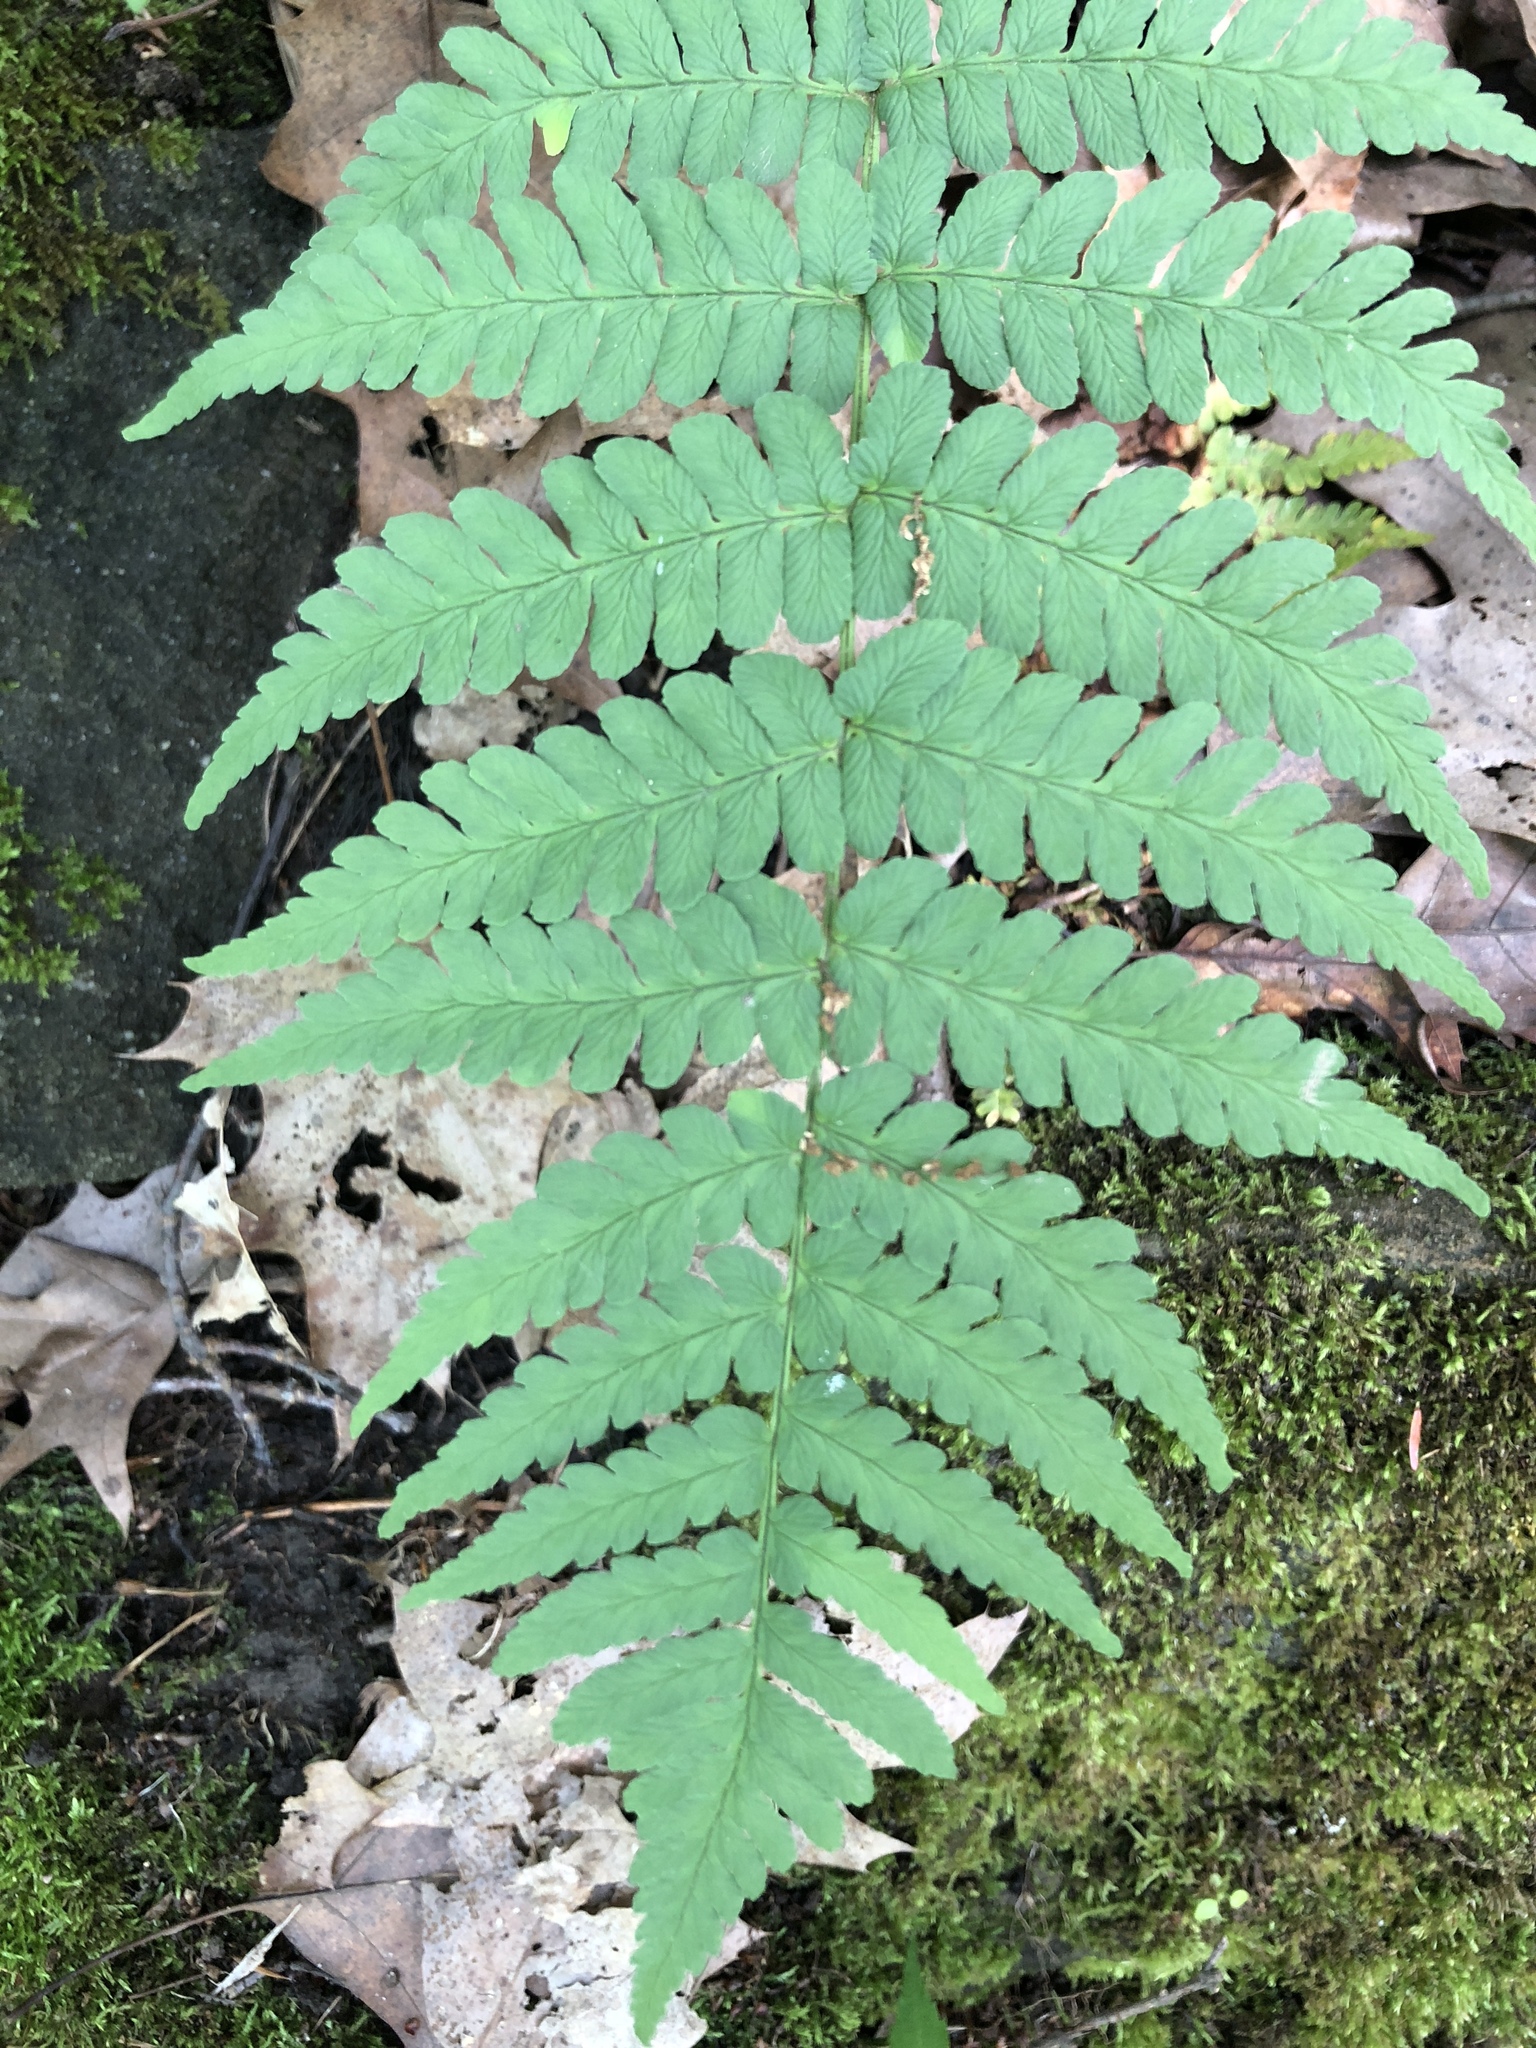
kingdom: Plantae
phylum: Tracheophyta
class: Polypodiopsida
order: Polypodiales
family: Dryopteridaceae
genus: Dryopteris
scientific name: Dryopteris marginalis
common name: Marginal wood fern
